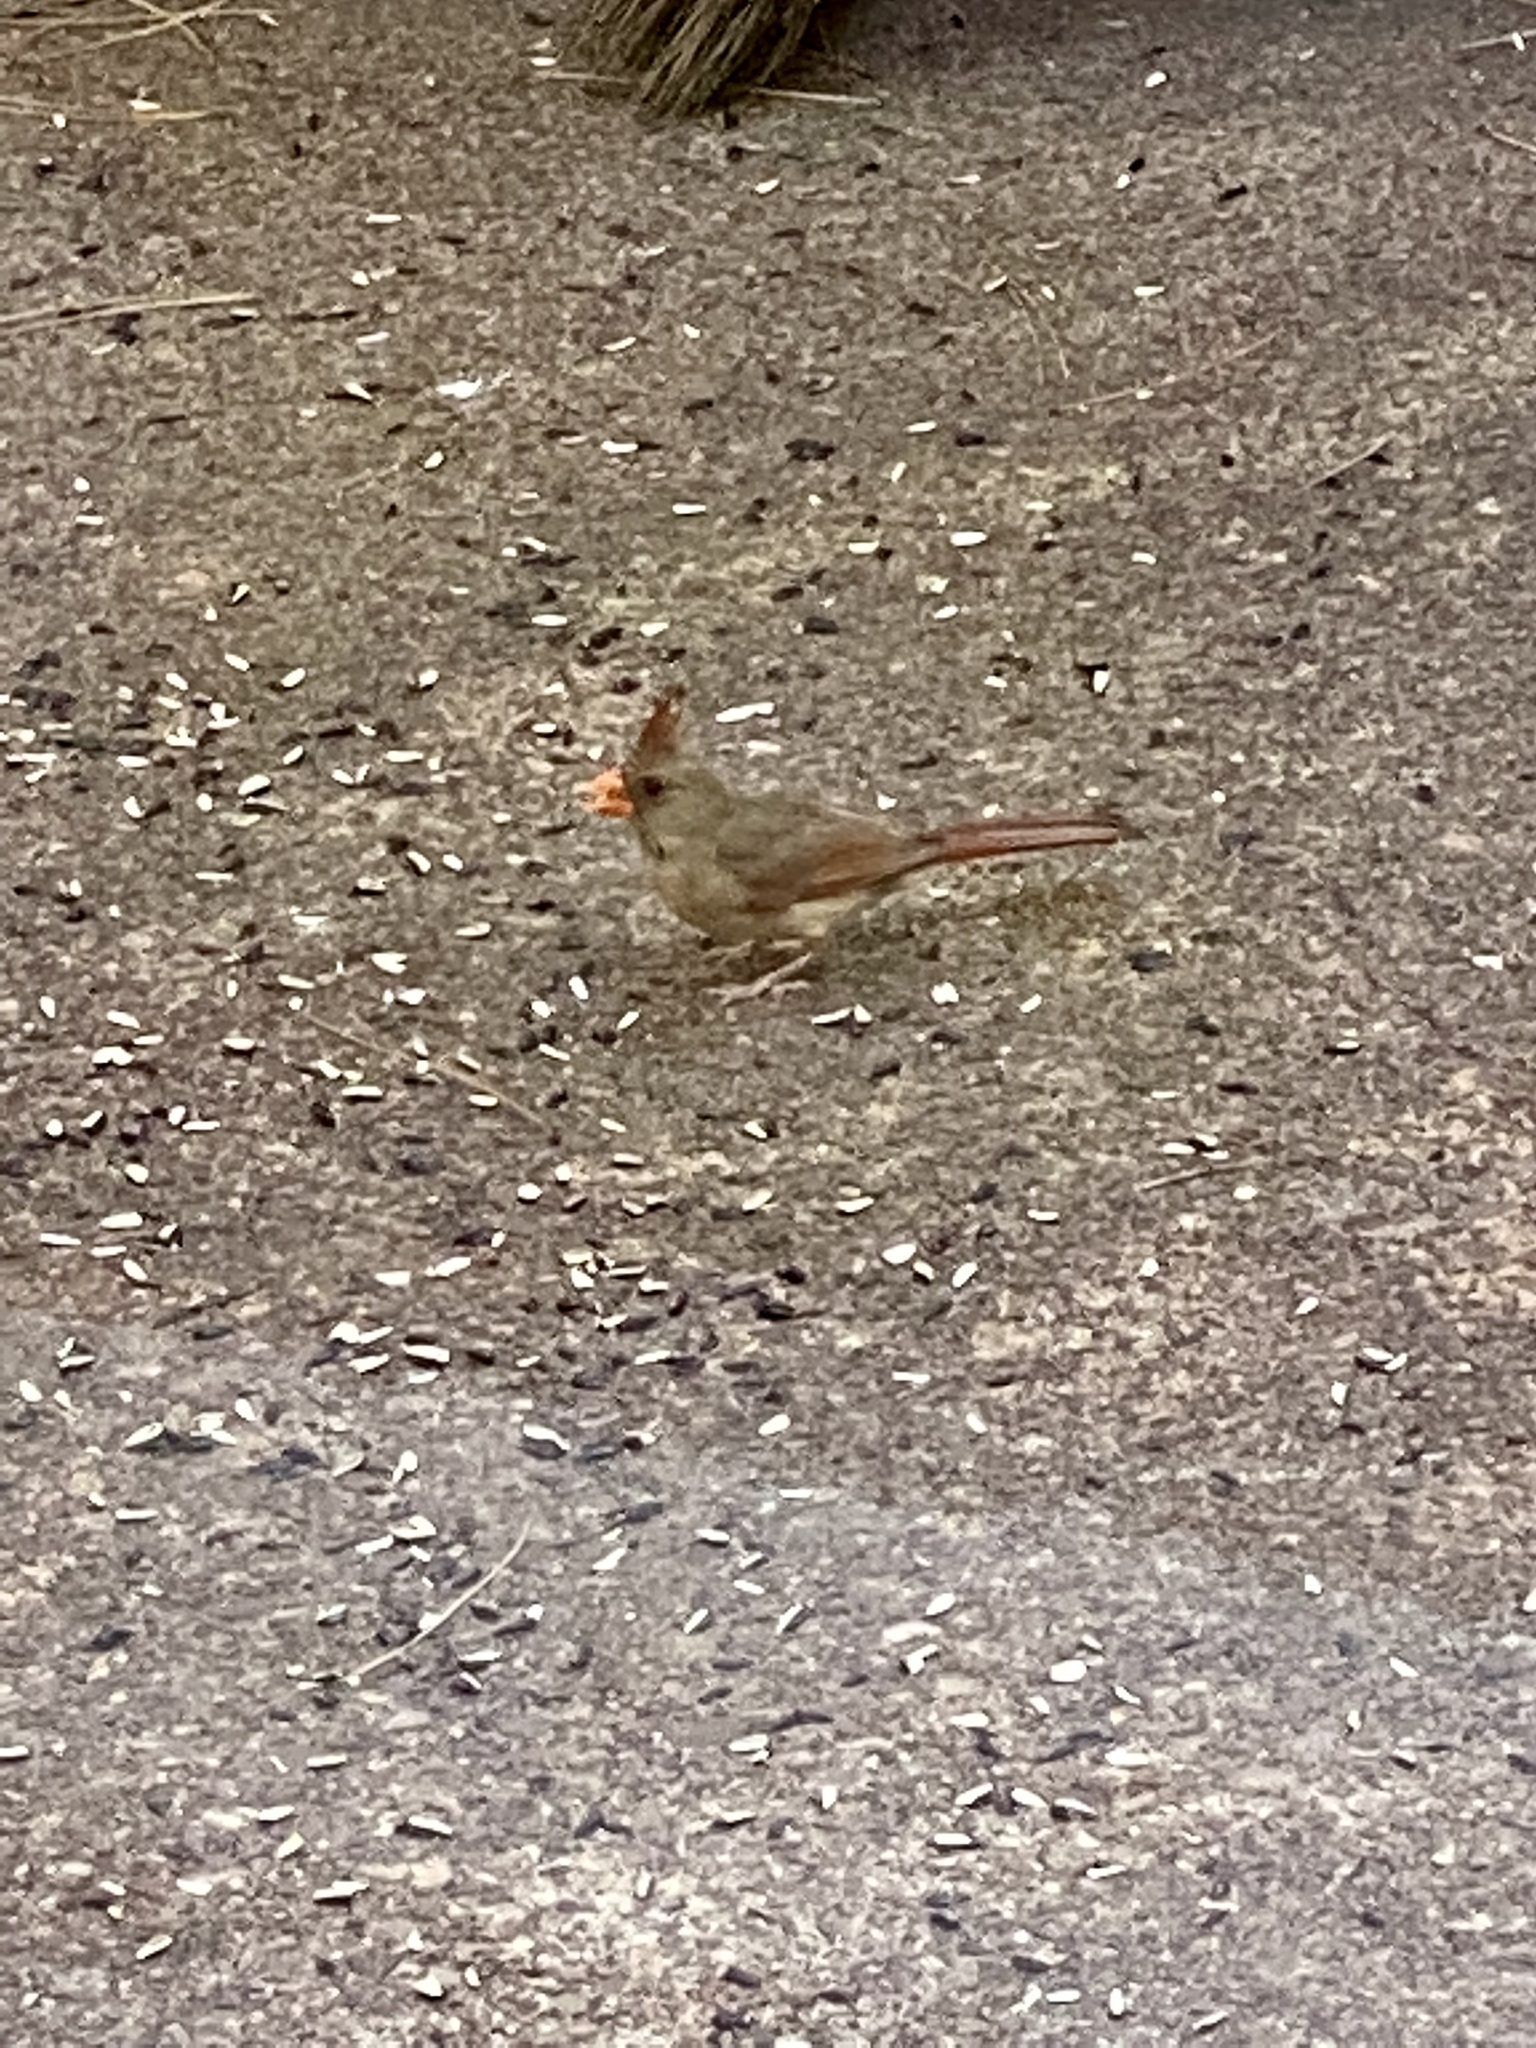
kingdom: Animalia
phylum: Chordata
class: Aves
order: Passeriformes
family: Cardinalidae
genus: Cardinalis
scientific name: Cardinalis cardinalis
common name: Northern cardinal
